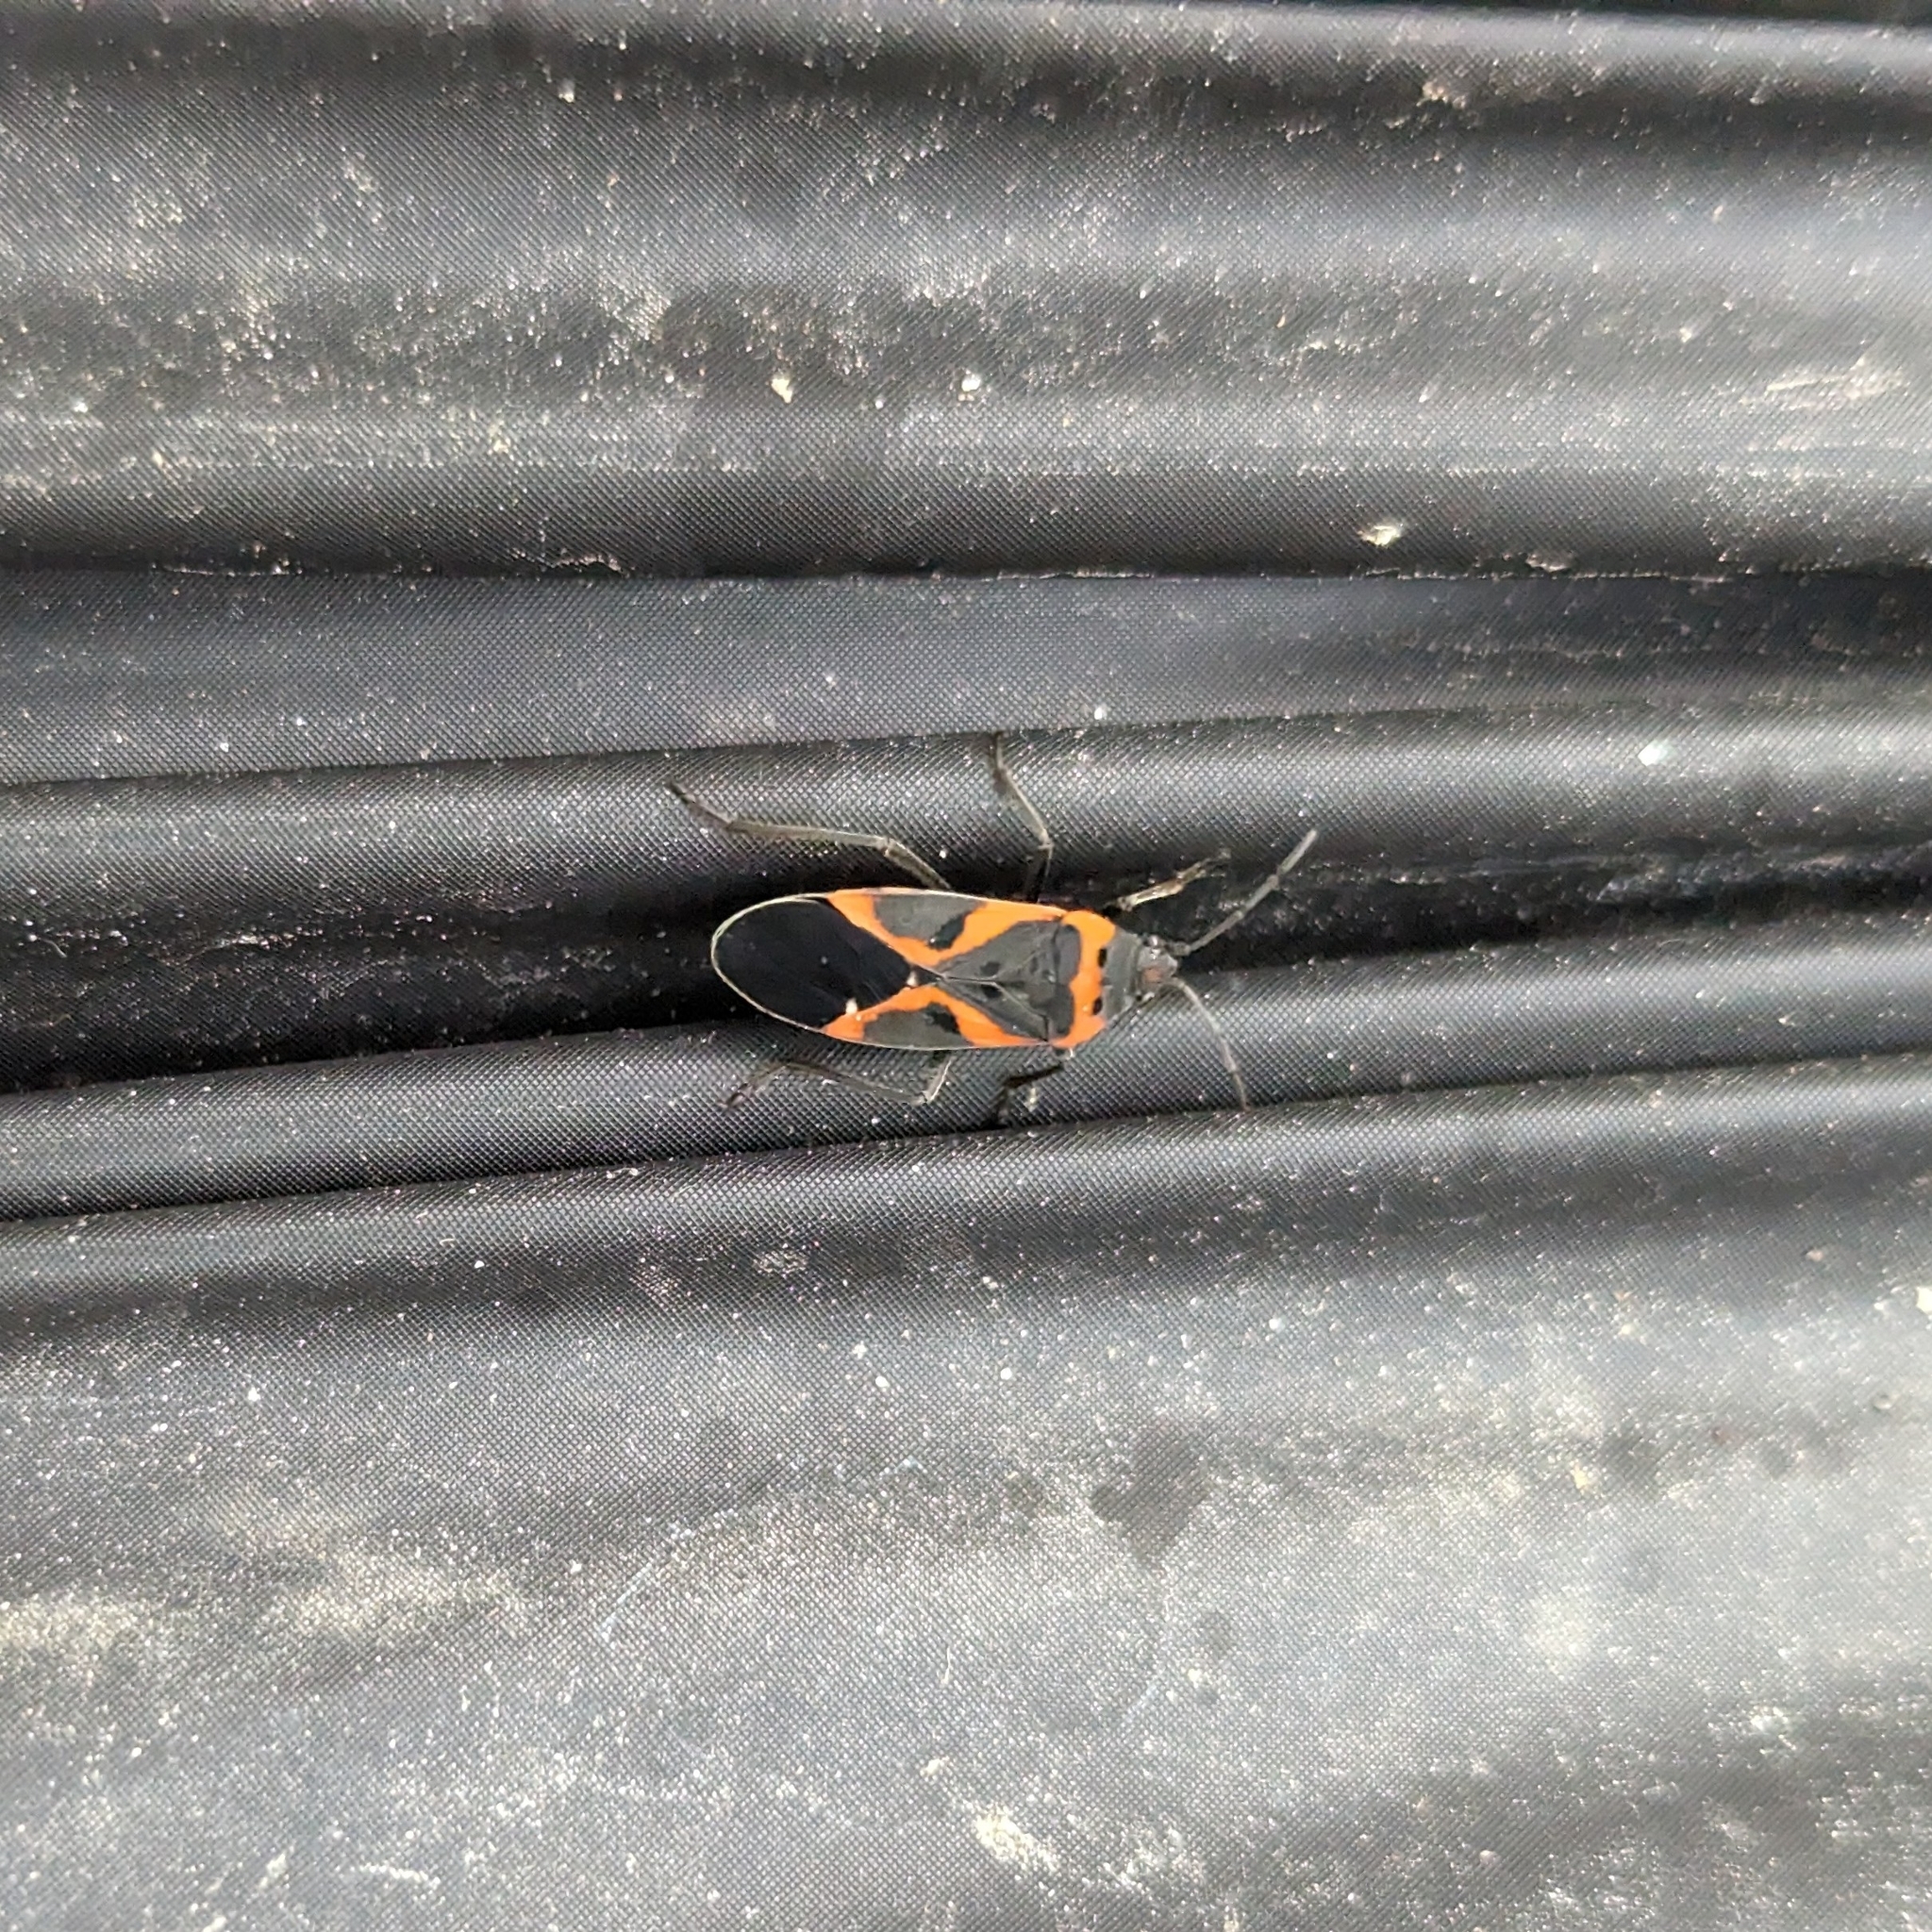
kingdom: Animalia
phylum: Arthropoda
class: Insecta
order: Hemiptera
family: Lygaeidae
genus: Lygaeus
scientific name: Lygaeus kalmii
